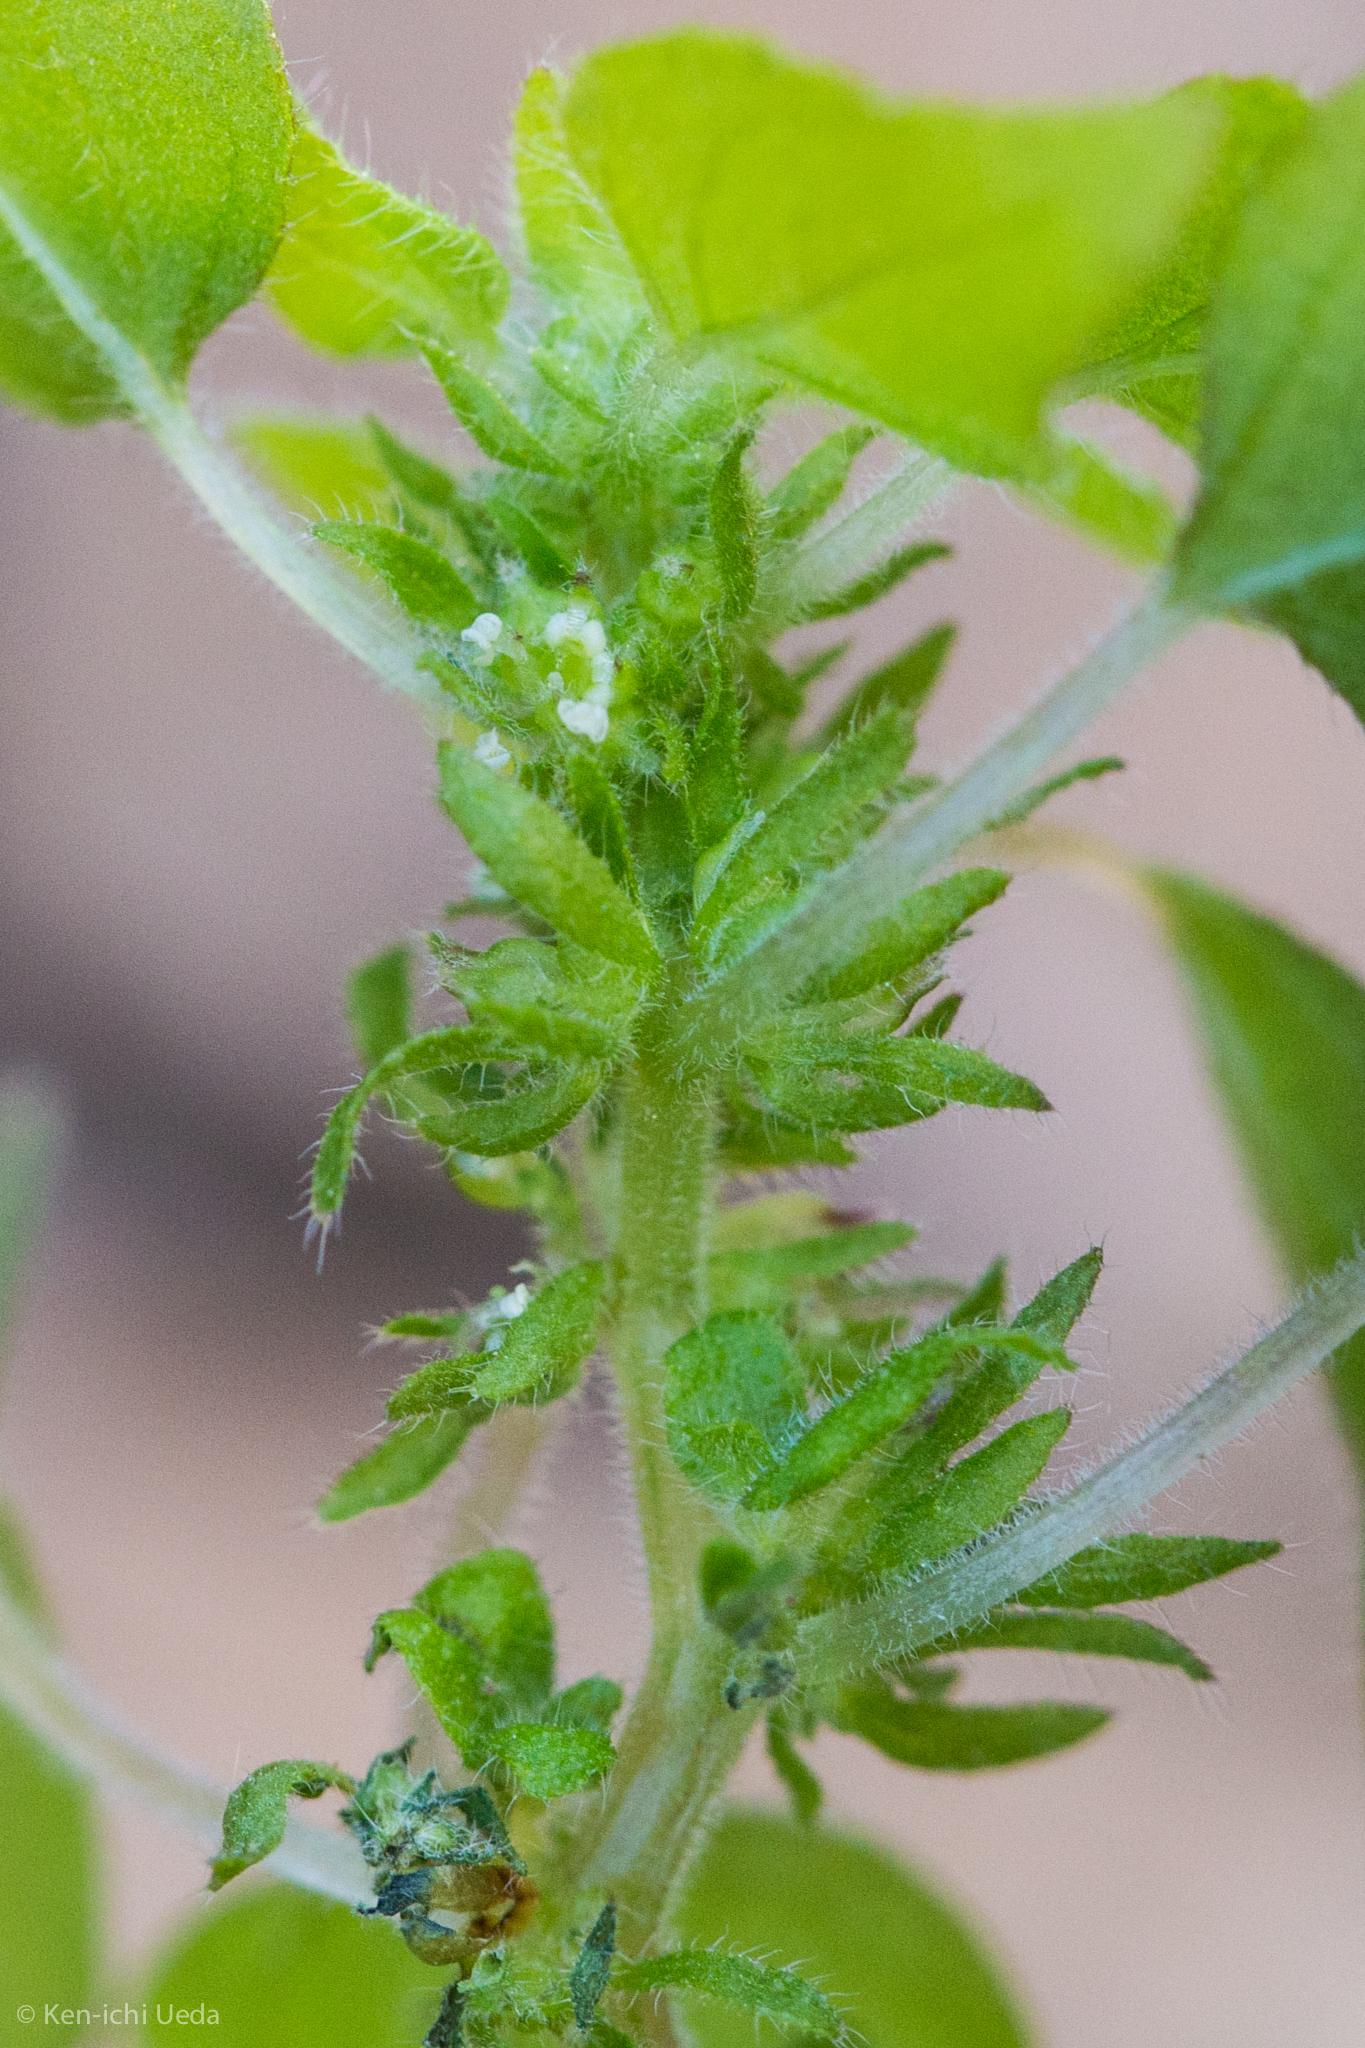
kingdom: Plantae
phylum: Tracheophyta
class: Magnoliopsida
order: Rosales
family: Urticaceae
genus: Parietaria
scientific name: Parietaria hespera
